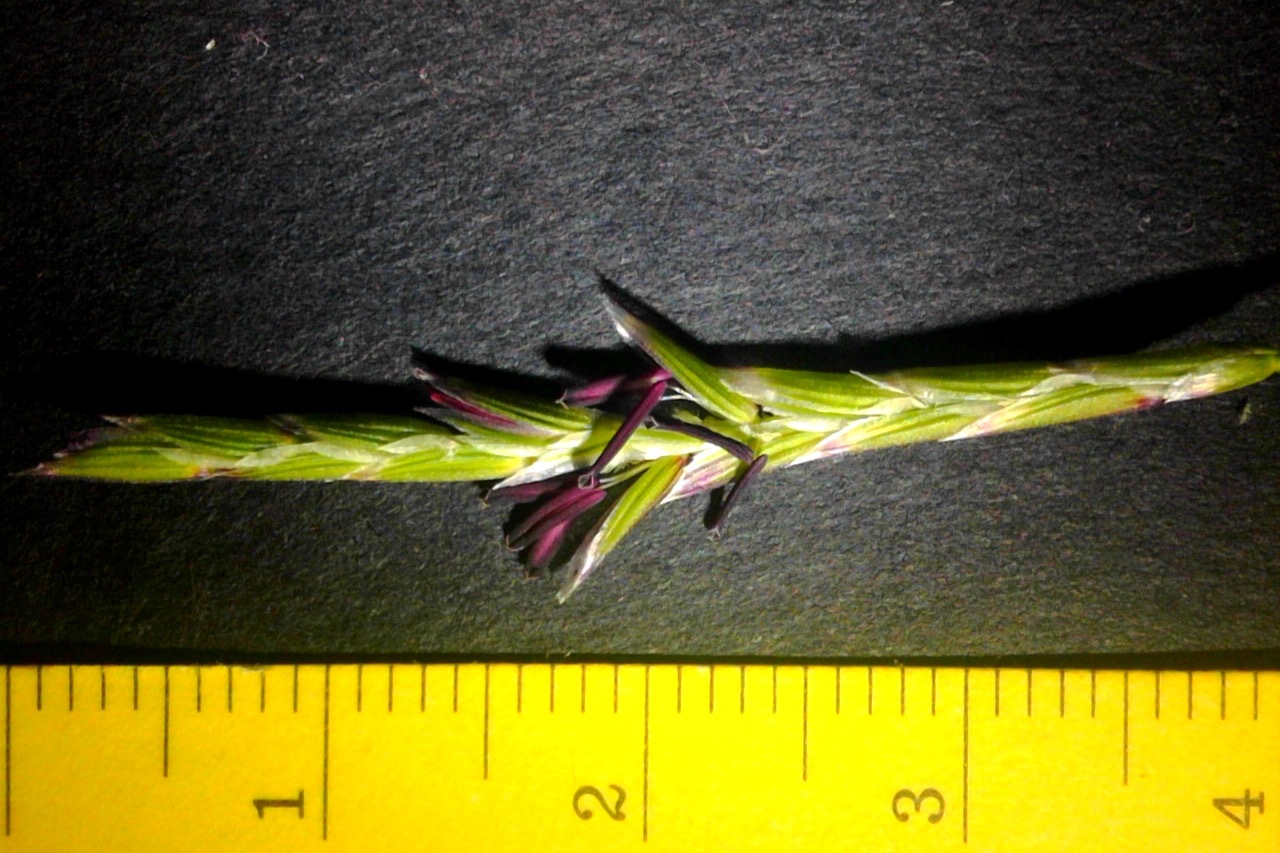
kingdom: Plantae
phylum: Tracheophyta
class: Liliopsida
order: Poales
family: Poaceae
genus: Pleuropogon
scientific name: Pleuropogon californicus
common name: California semaphore grass
